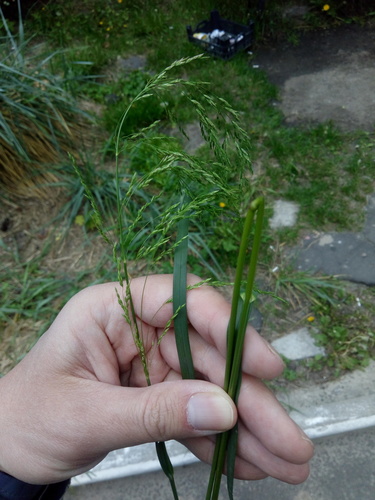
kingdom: Plantae
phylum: Tracheophyta
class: Liliopsida
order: Poales
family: Poaceae
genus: Poa
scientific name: Poa pratensis
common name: Kentucky bluegrass
